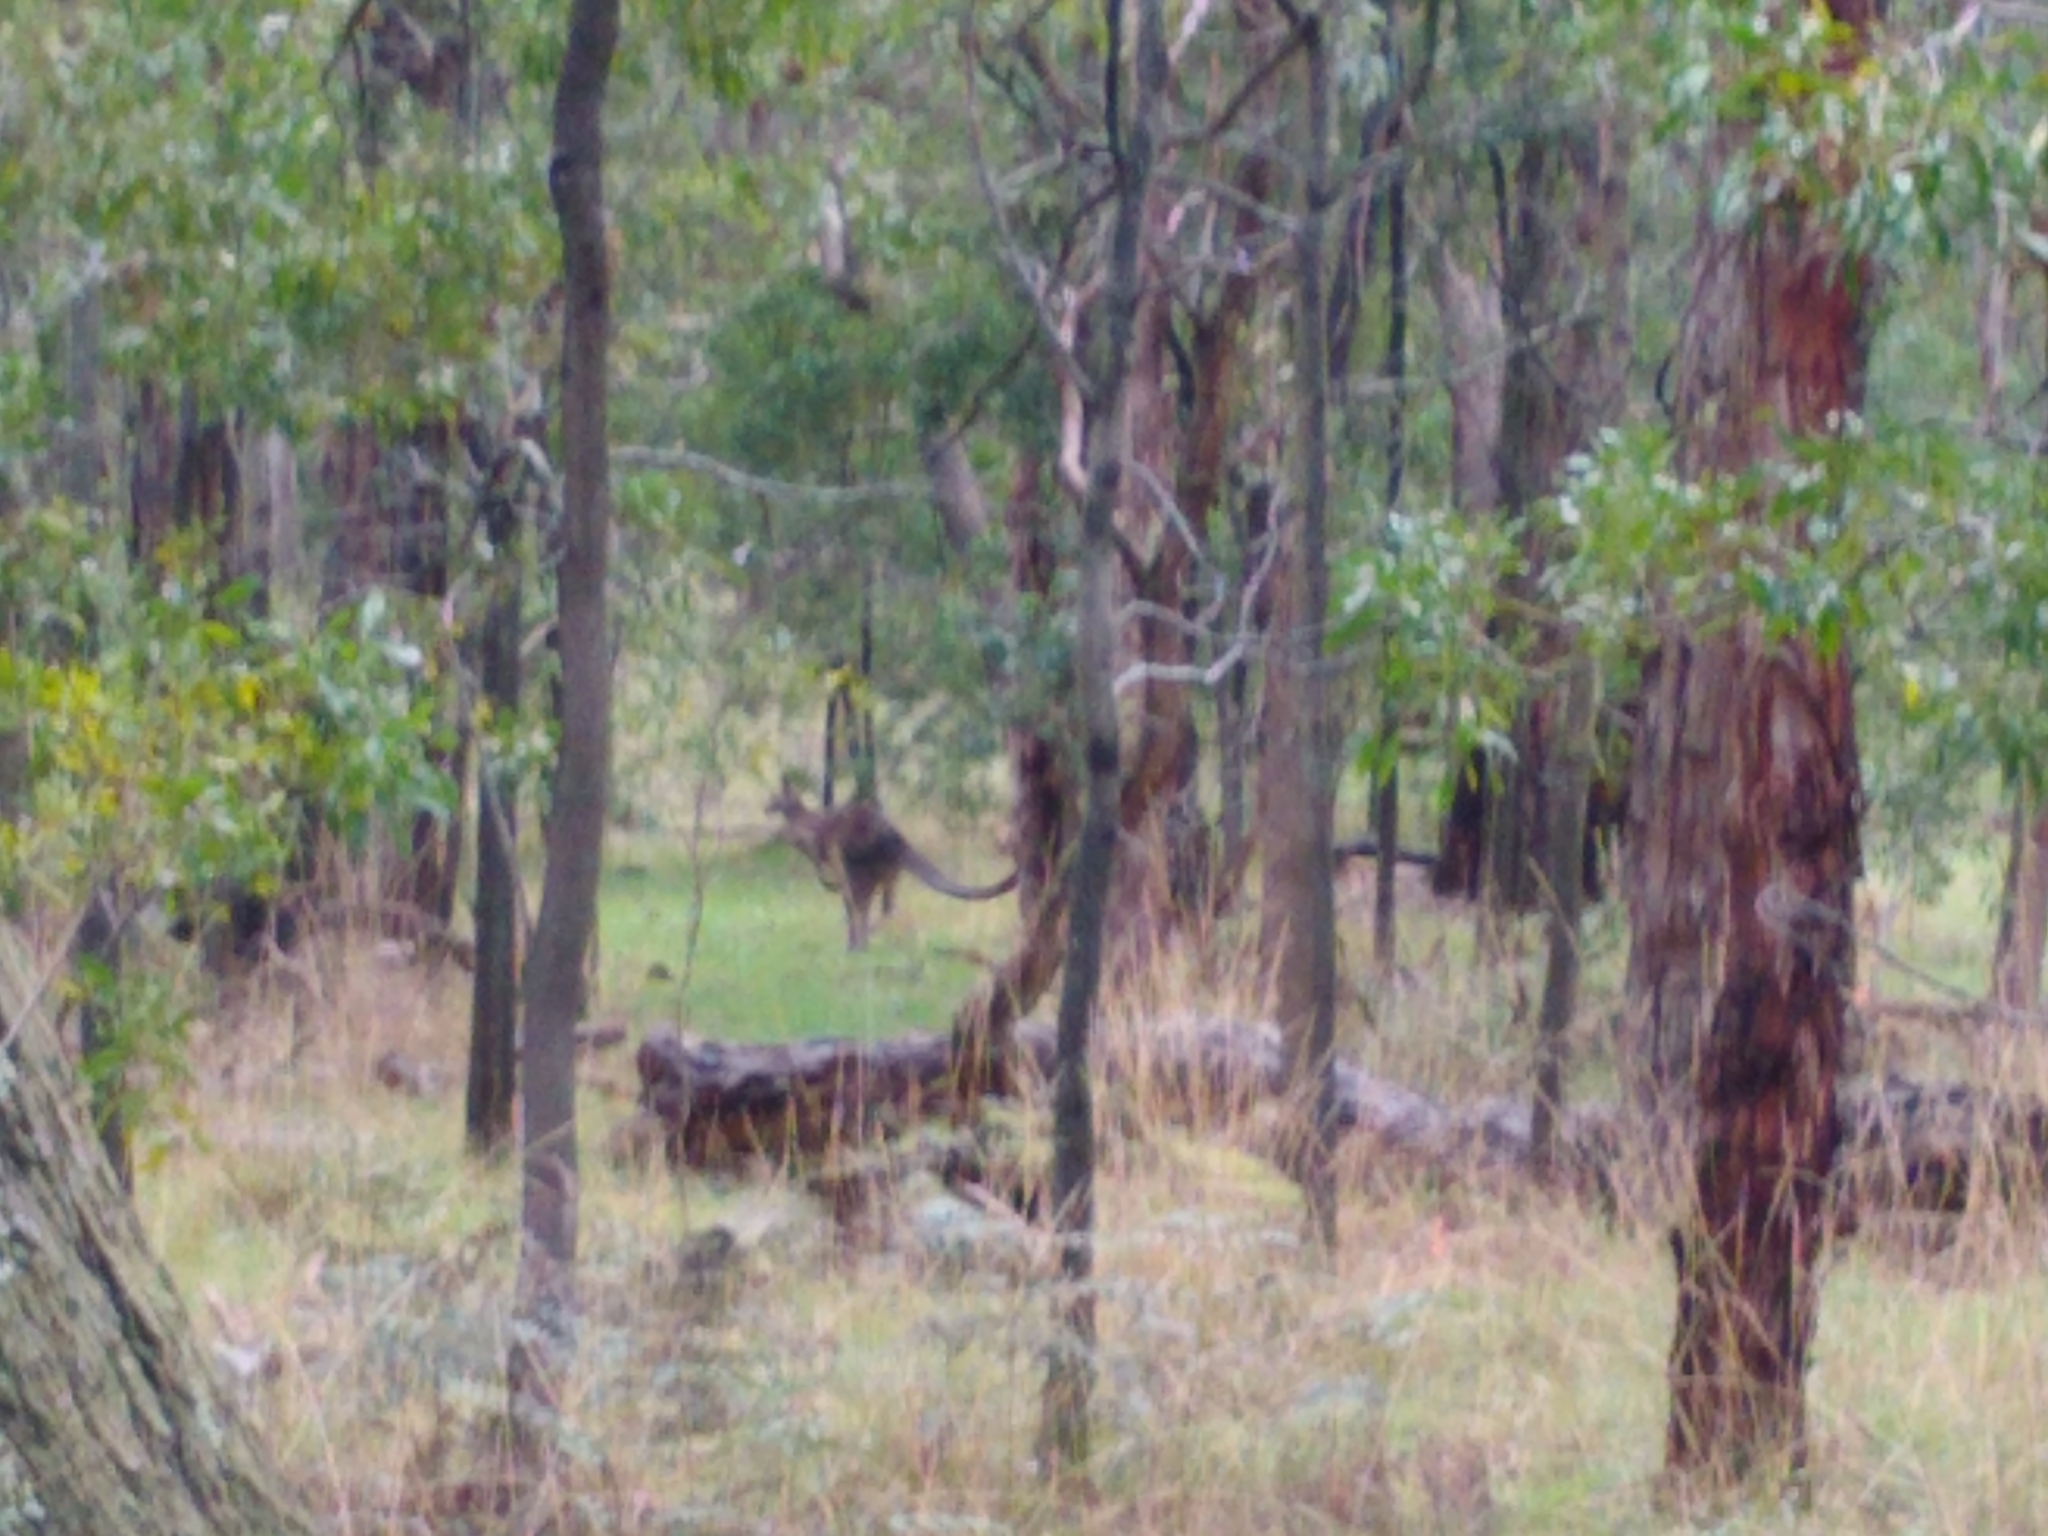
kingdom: Animalia
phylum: Chordata
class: Mammalia
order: Diprotodontia
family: Macropodidae
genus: Macropus
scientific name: Macropus giganteus
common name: Eastern grey kangaroo
